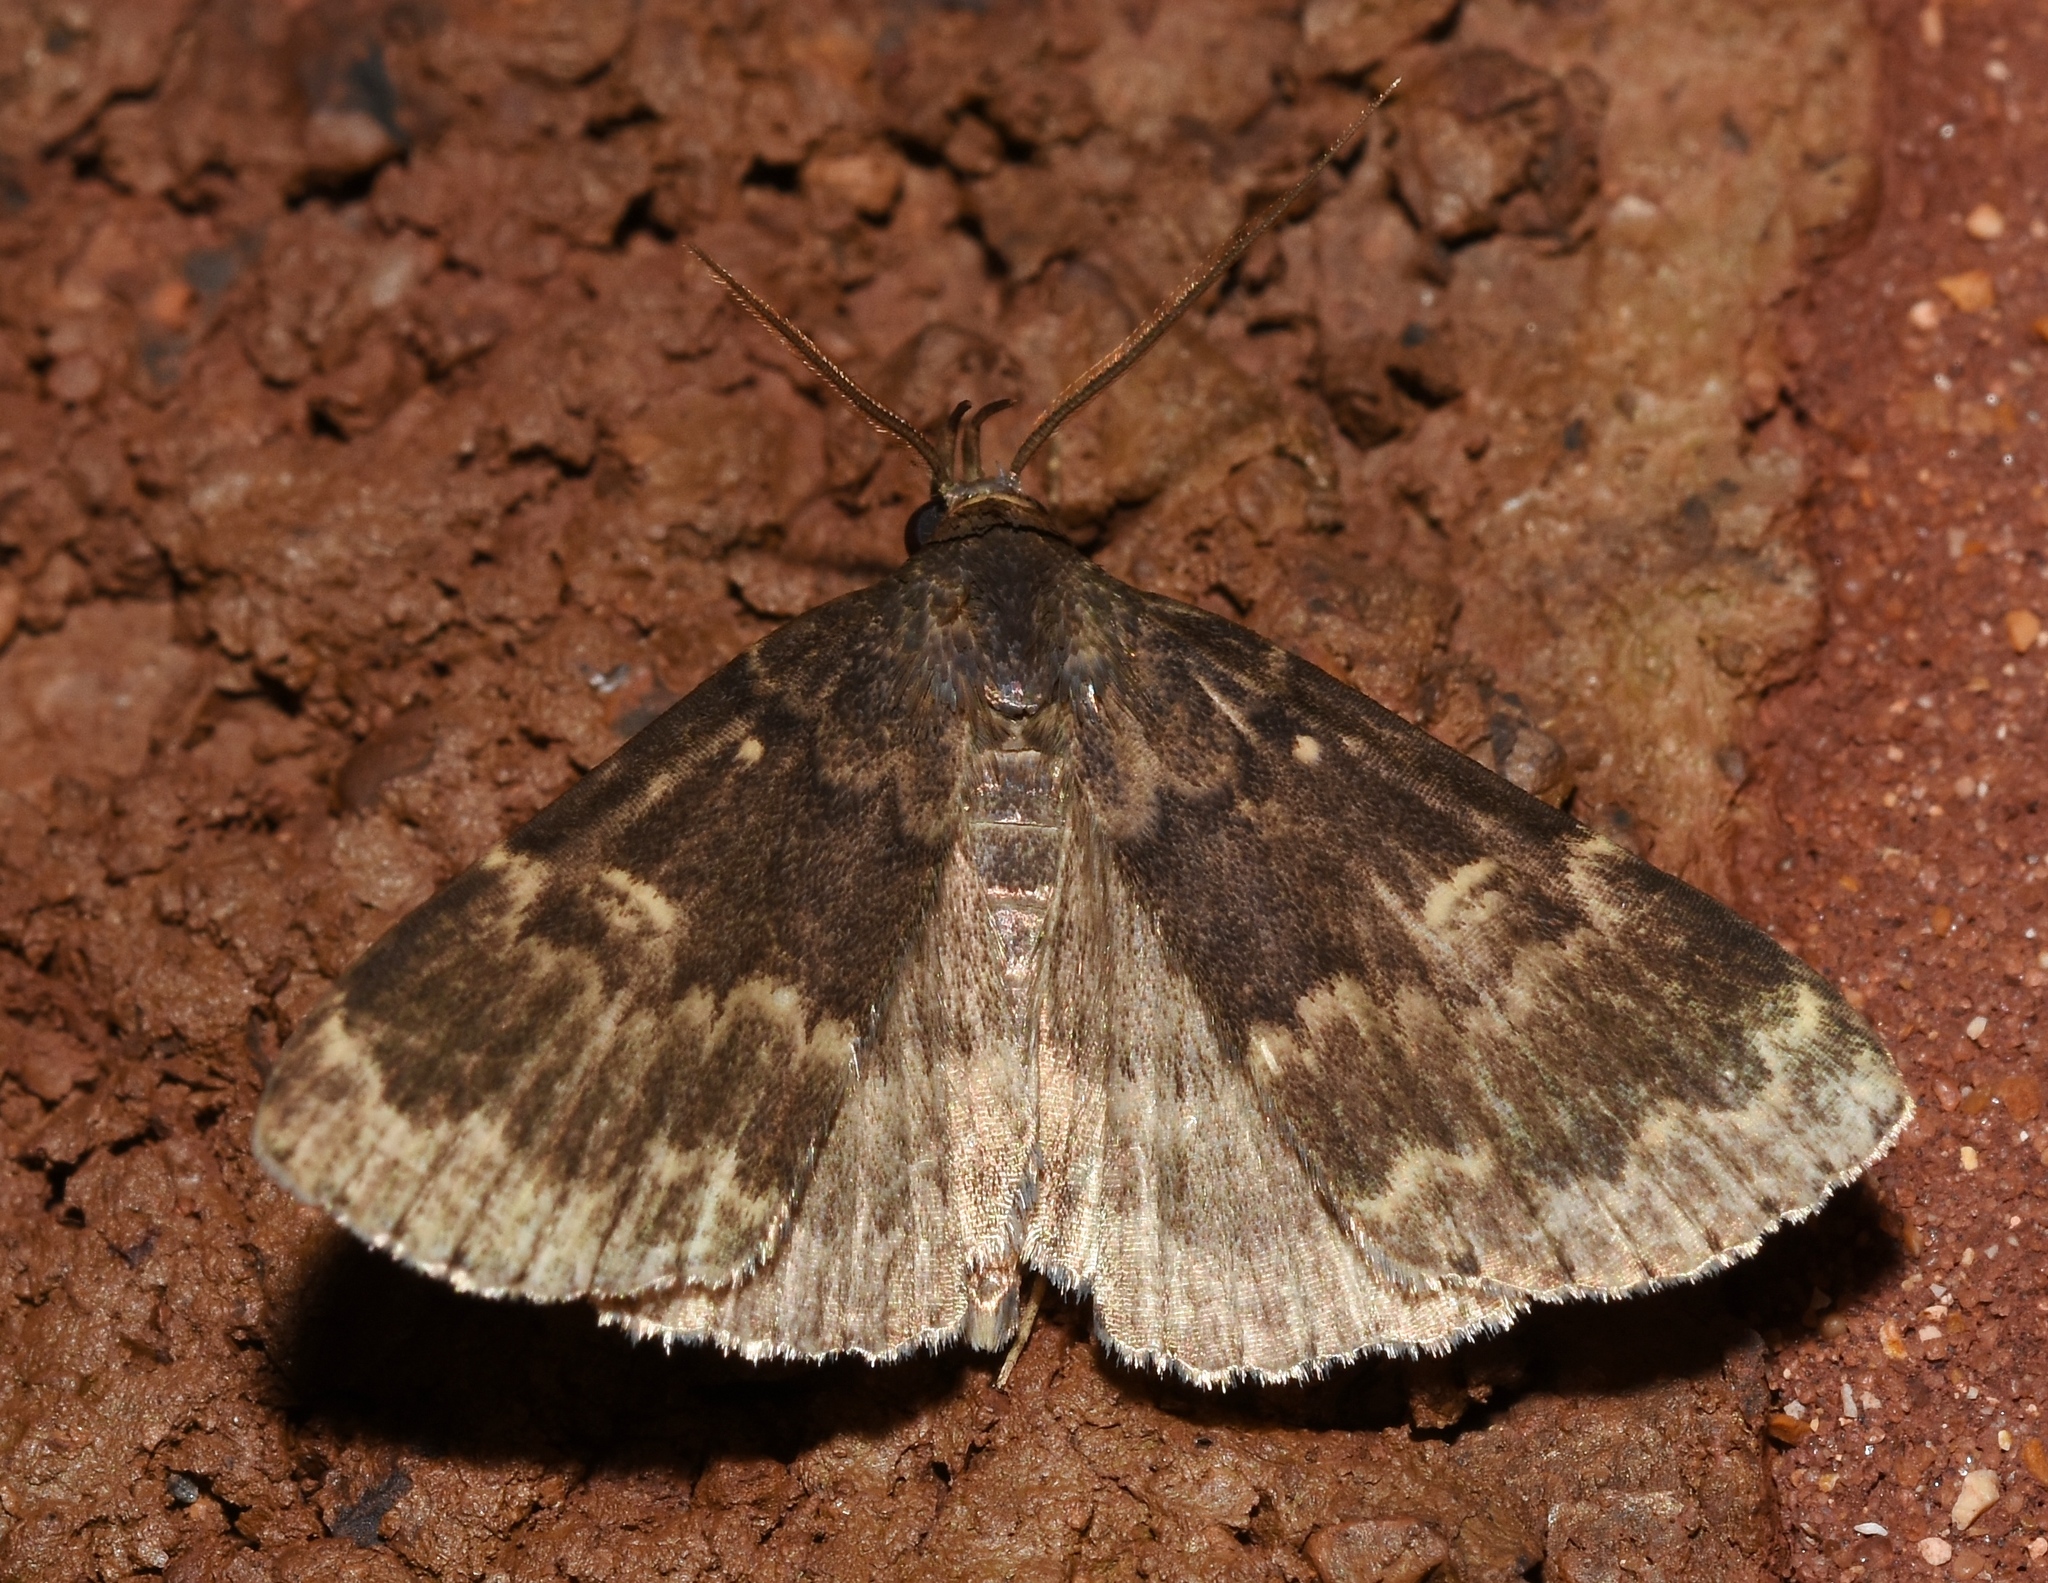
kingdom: Animalia
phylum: Arthropoda
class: Insecta
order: Lepidoptera
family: Erebidae
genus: Idia
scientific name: Idia lubricalis
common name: Twin-striped tabby
